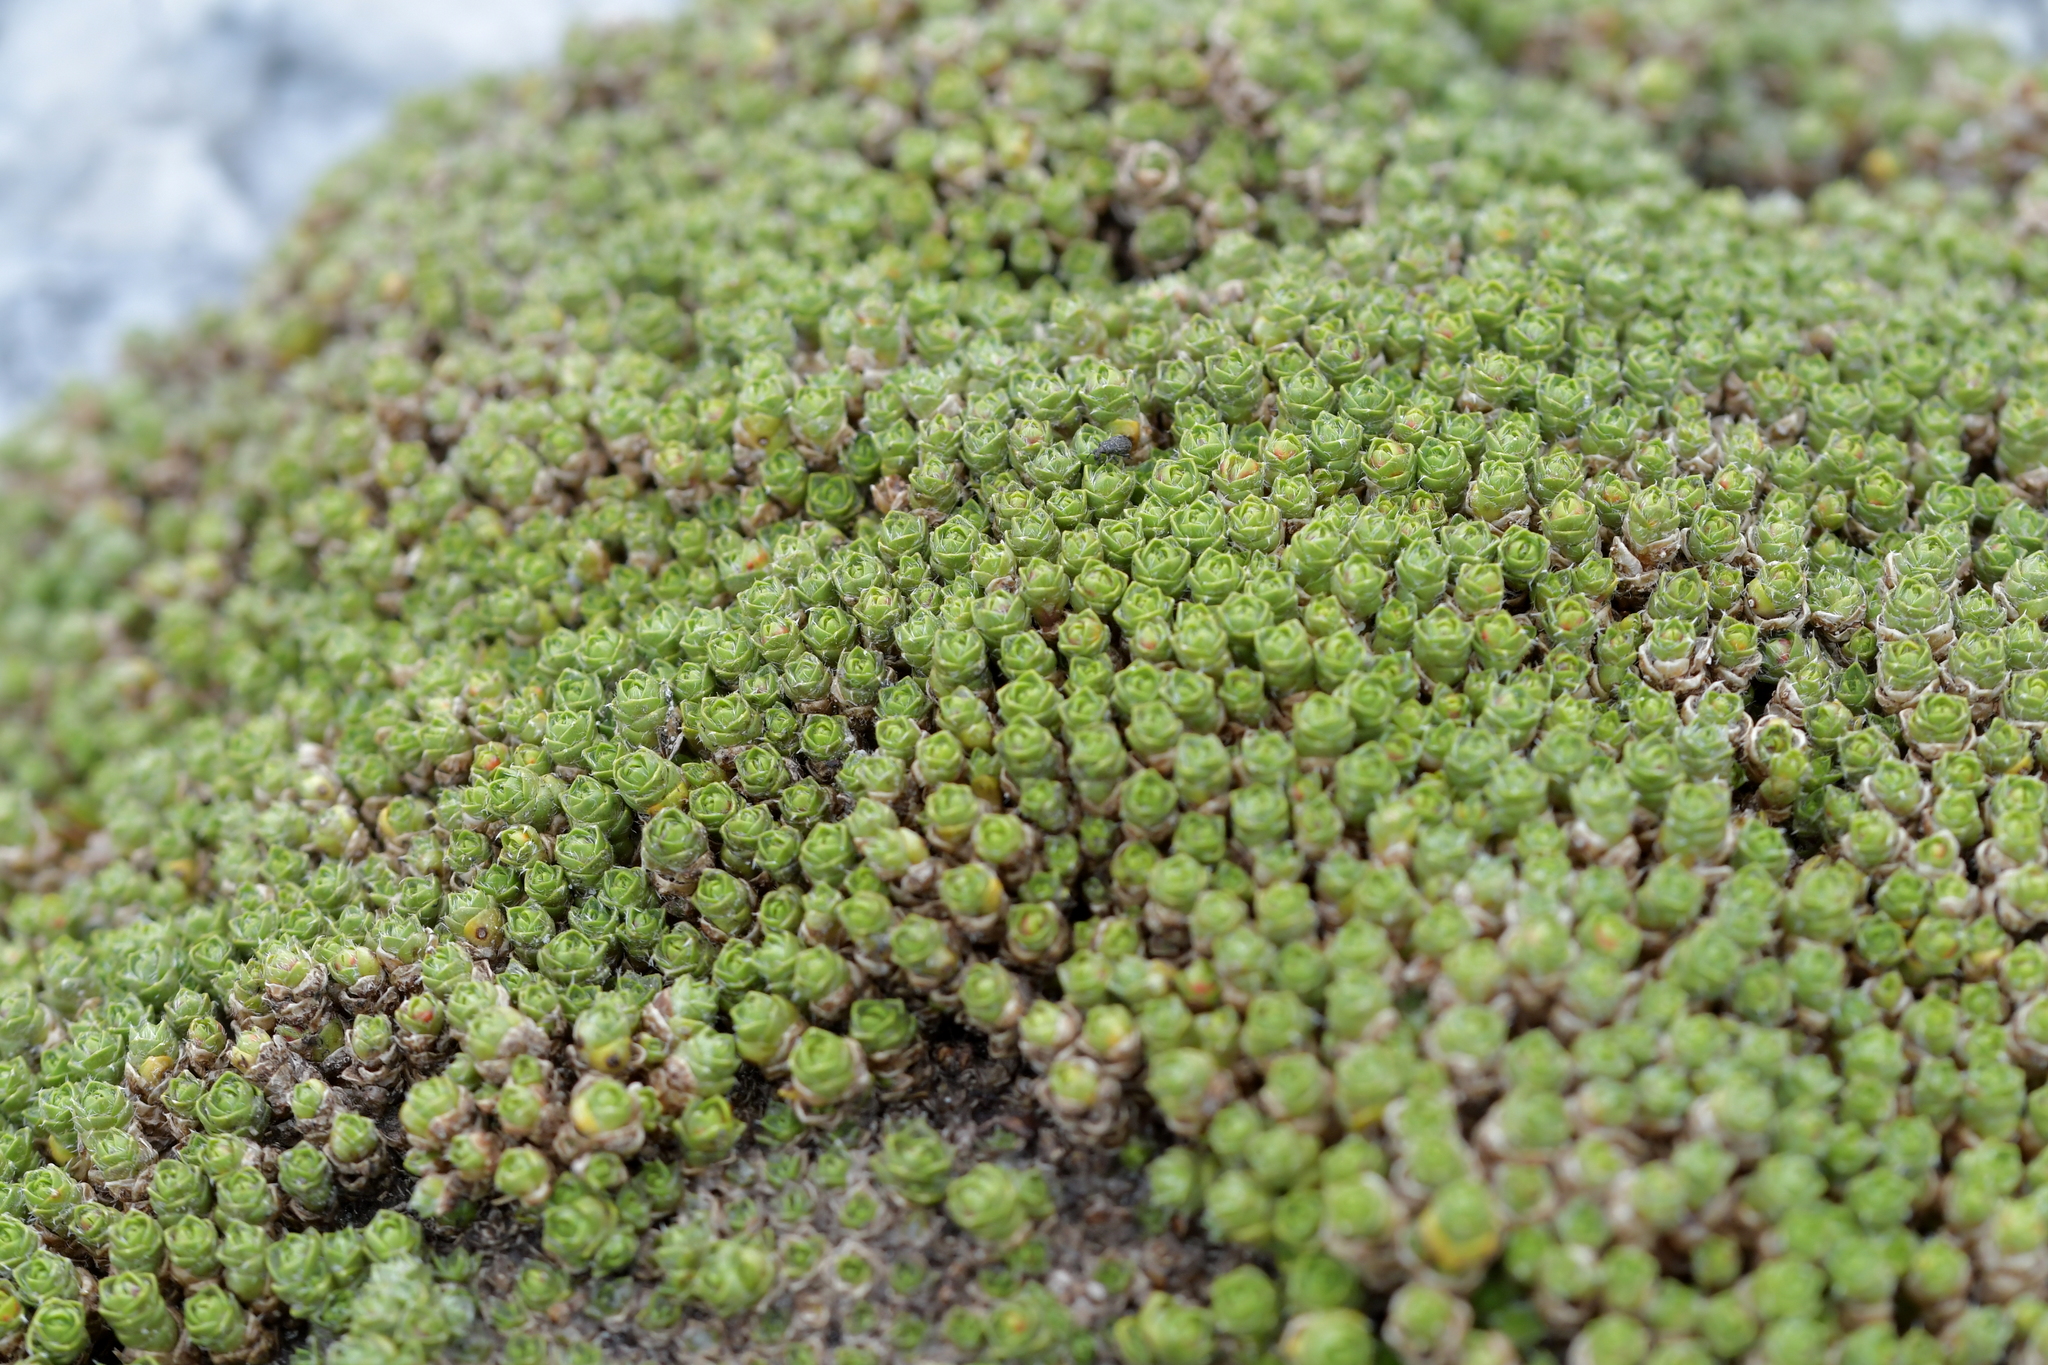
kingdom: Plantae
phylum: Tracheophyta
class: Magnoliopsida
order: Lamiales
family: Plantaginaceae
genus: Veronica
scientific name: Veronica thomsonii
